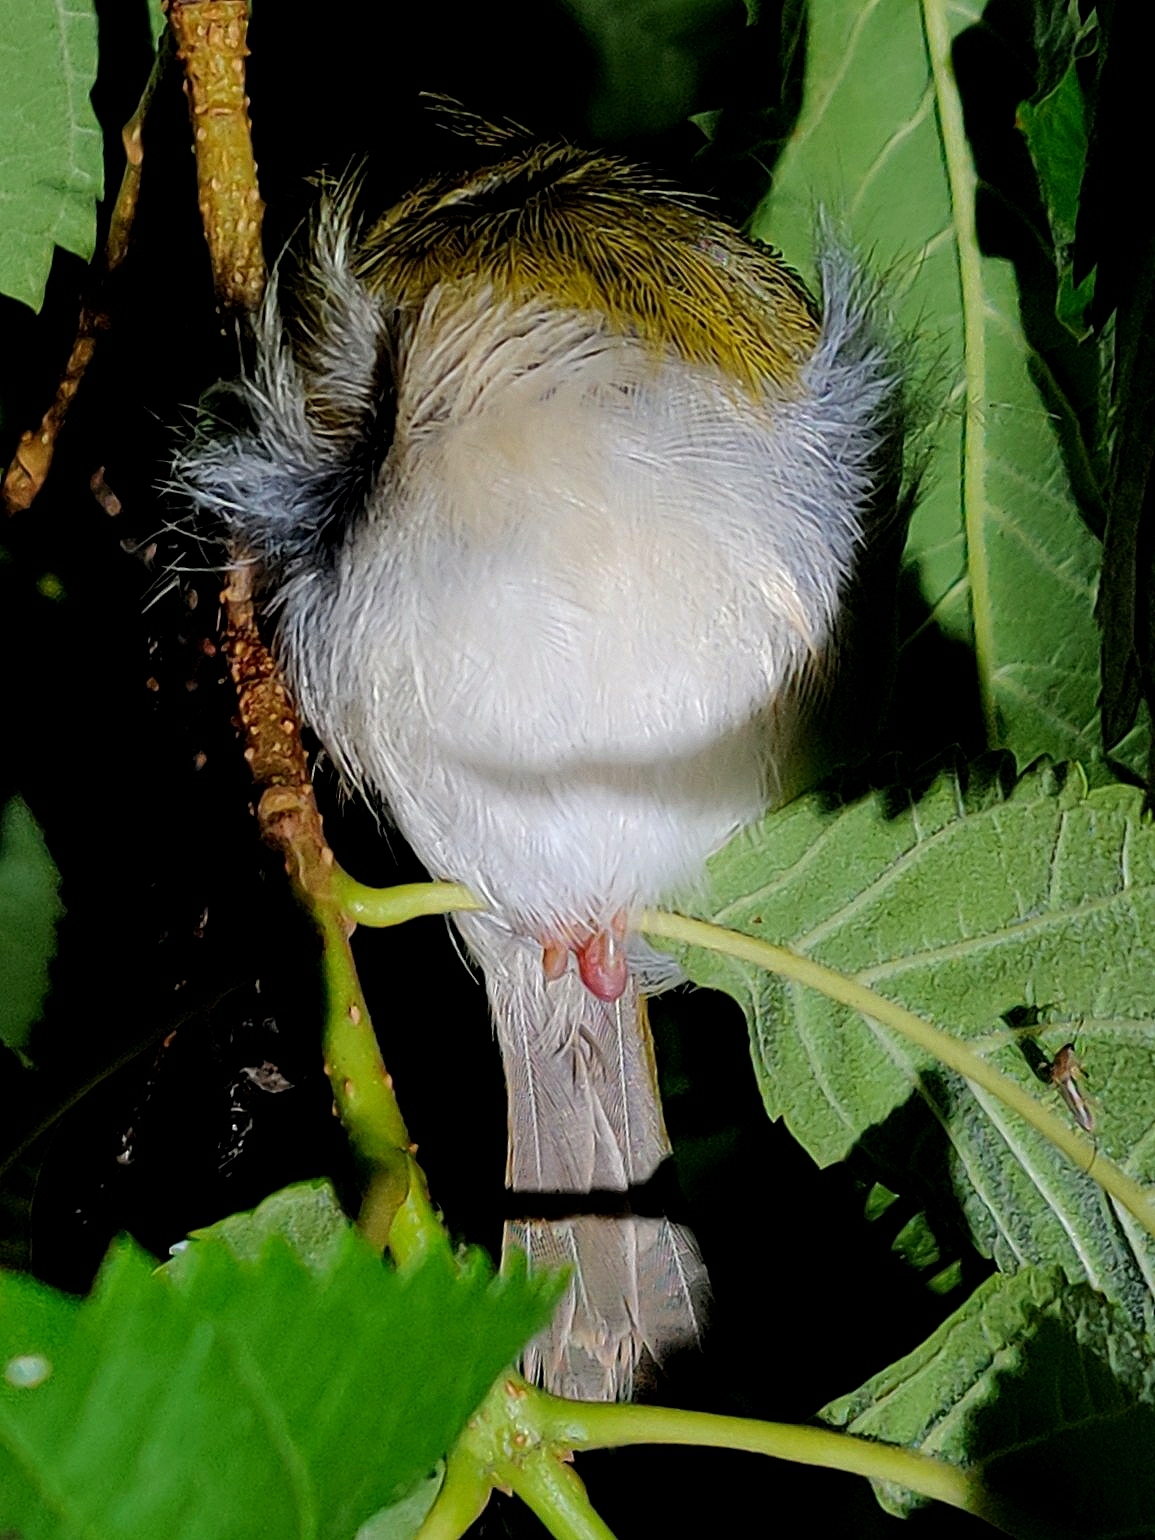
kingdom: Animalia
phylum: Chordata
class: Aves
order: Passeriformes
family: Cisticolidae
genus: Orthotomus
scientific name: Orthotomus sutorius
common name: Common tailorbird
